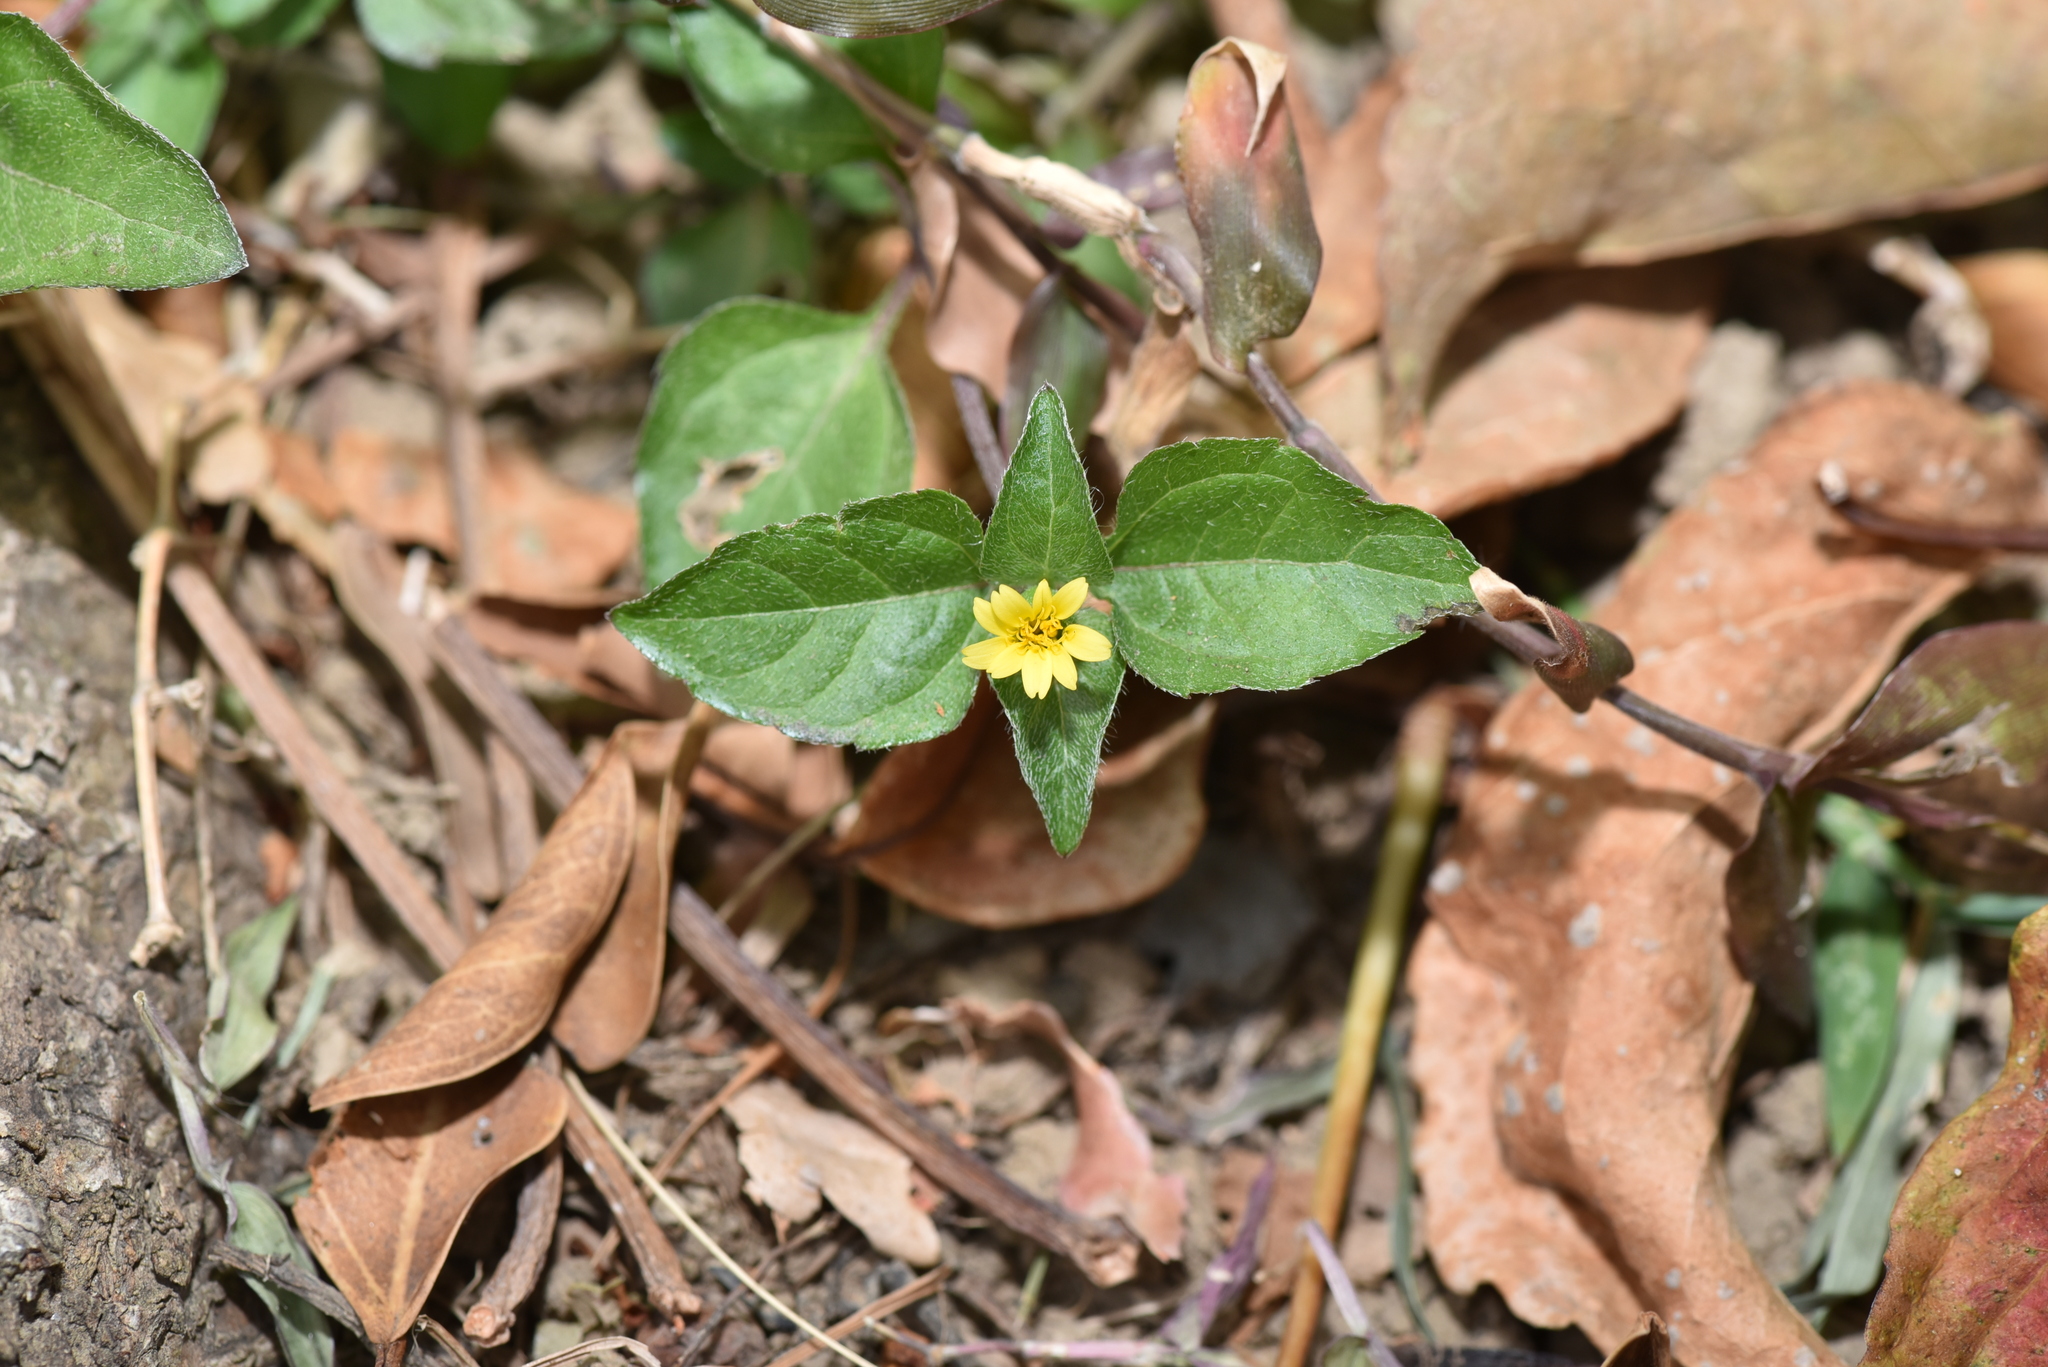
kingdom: Plantae
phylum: Tracheophyta
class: Magnoliopsida
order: Asterales
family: Asteraceae
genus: Calyptocarpus
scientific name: Calyptocarpus vialis
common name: Straggler daisy
